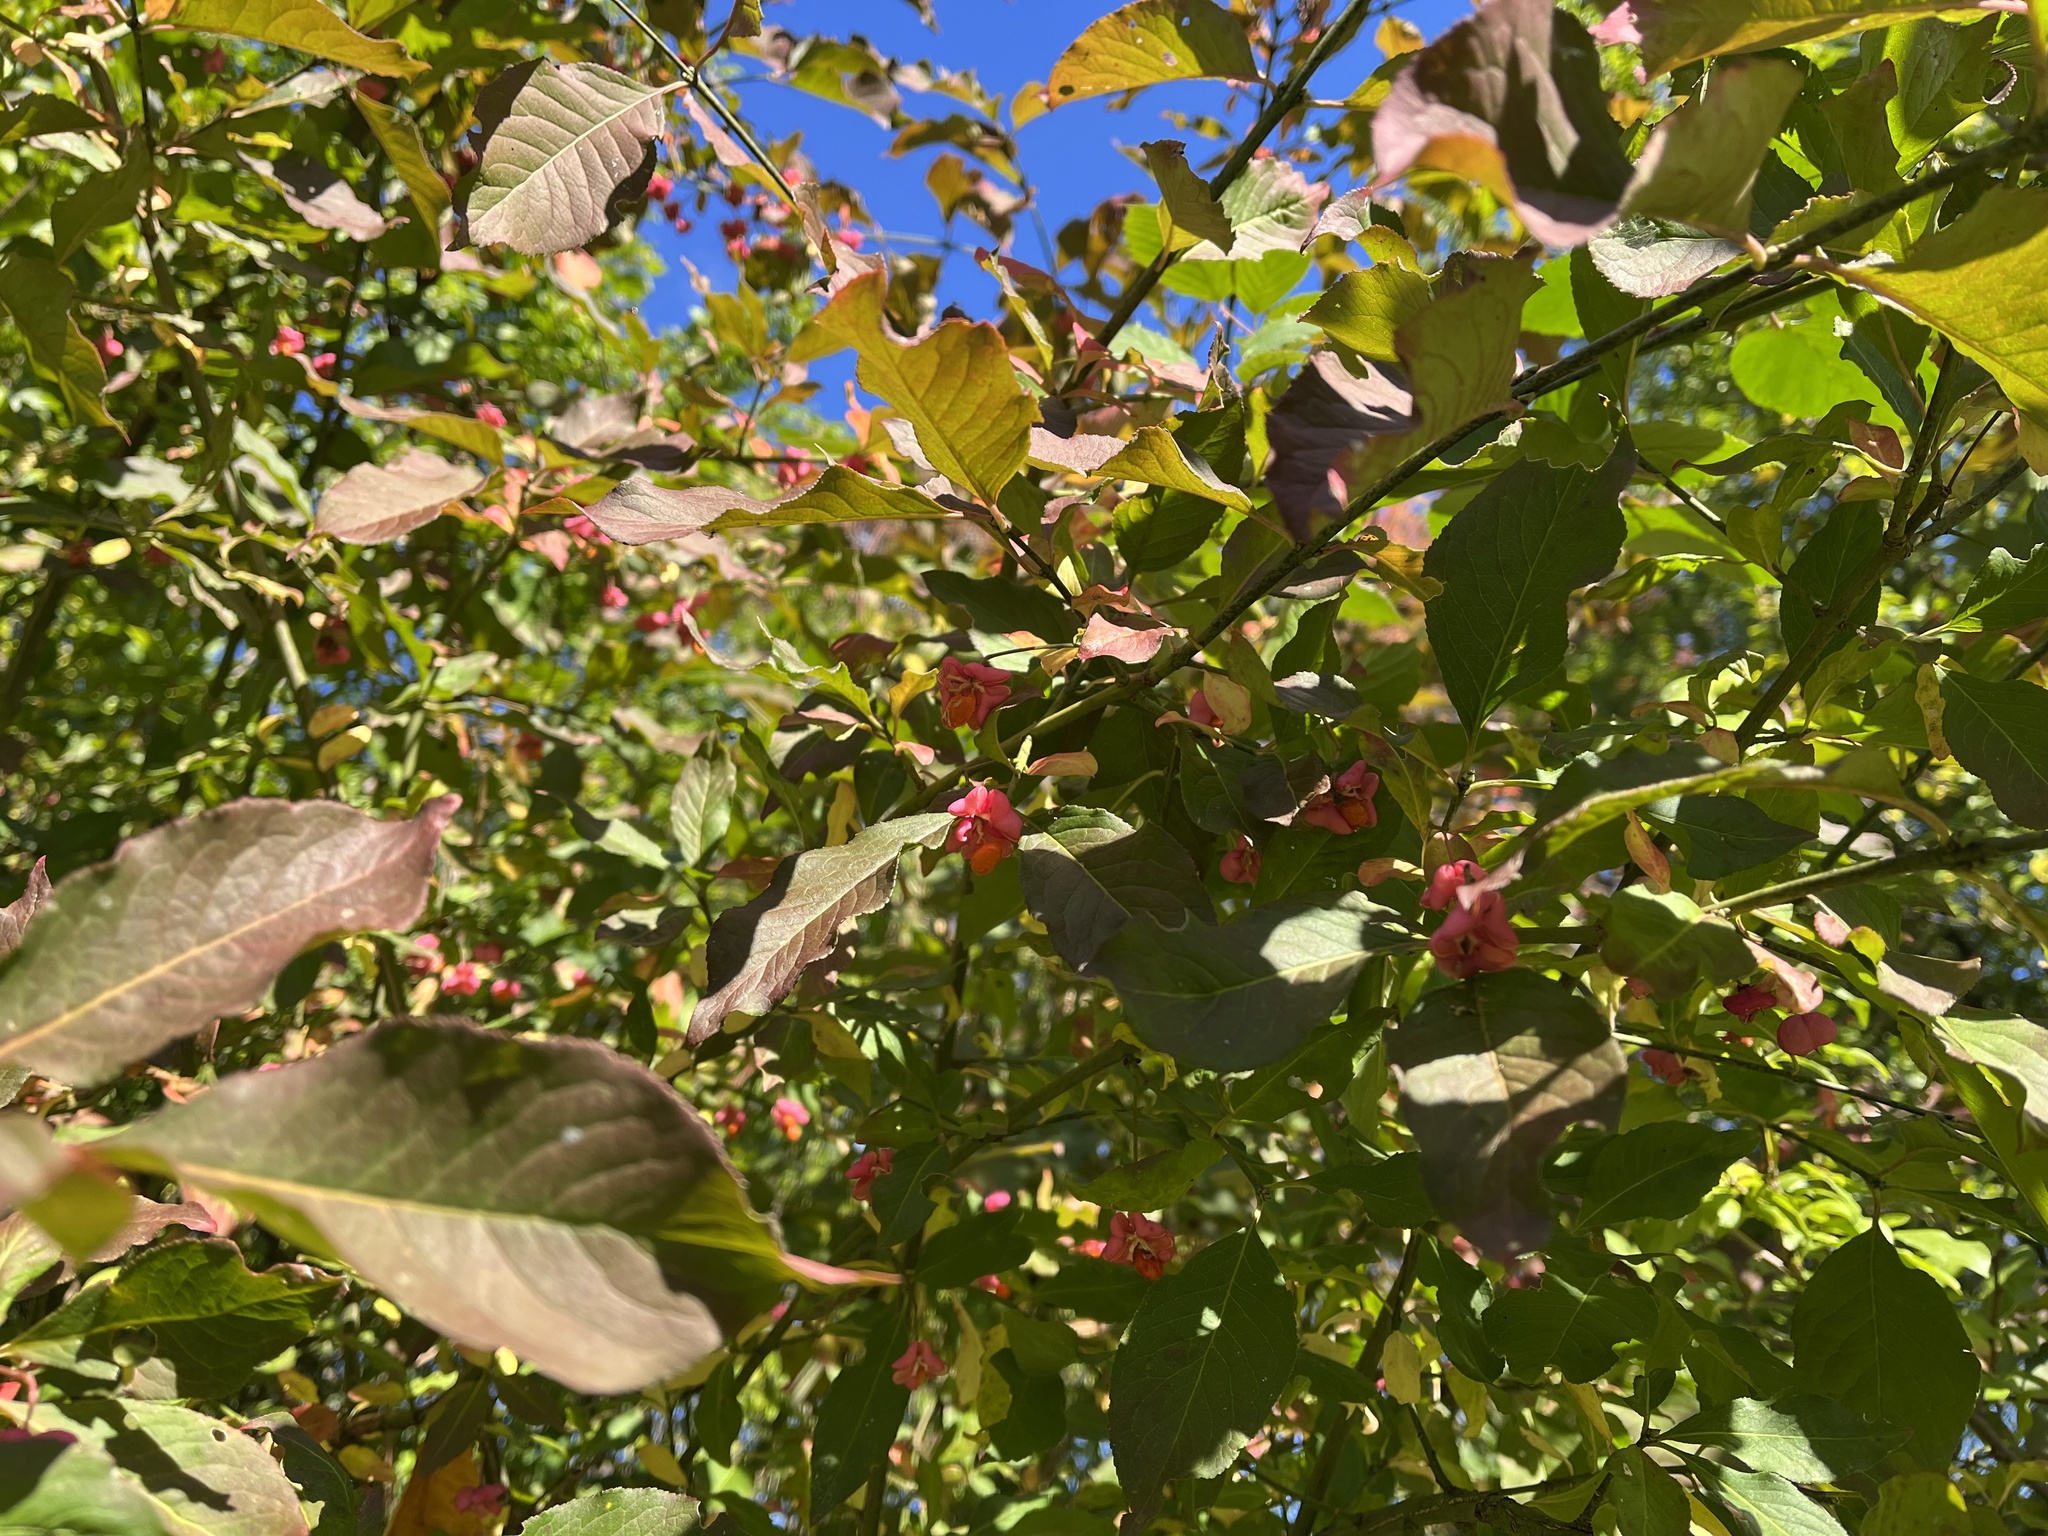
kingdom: Plantae
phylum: Tracheophyta
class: Magnoliopsida
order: Celastrales
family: Celastraceae
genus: Euonymus
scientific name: Euonymus europaeus
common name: Spindle
